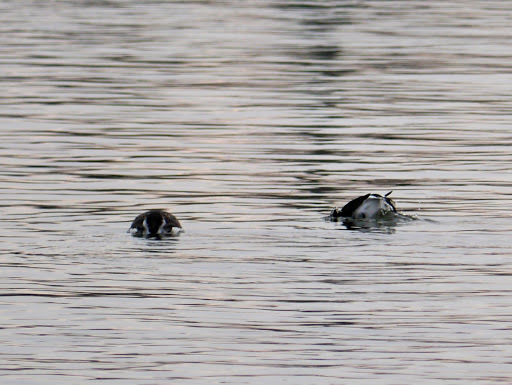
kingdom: Animalia
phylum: Chordata
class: Aves
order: Anseriformes
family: Anatidae
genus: Clangula
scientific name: Clangula hyemalis
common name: Long-tailed duck
